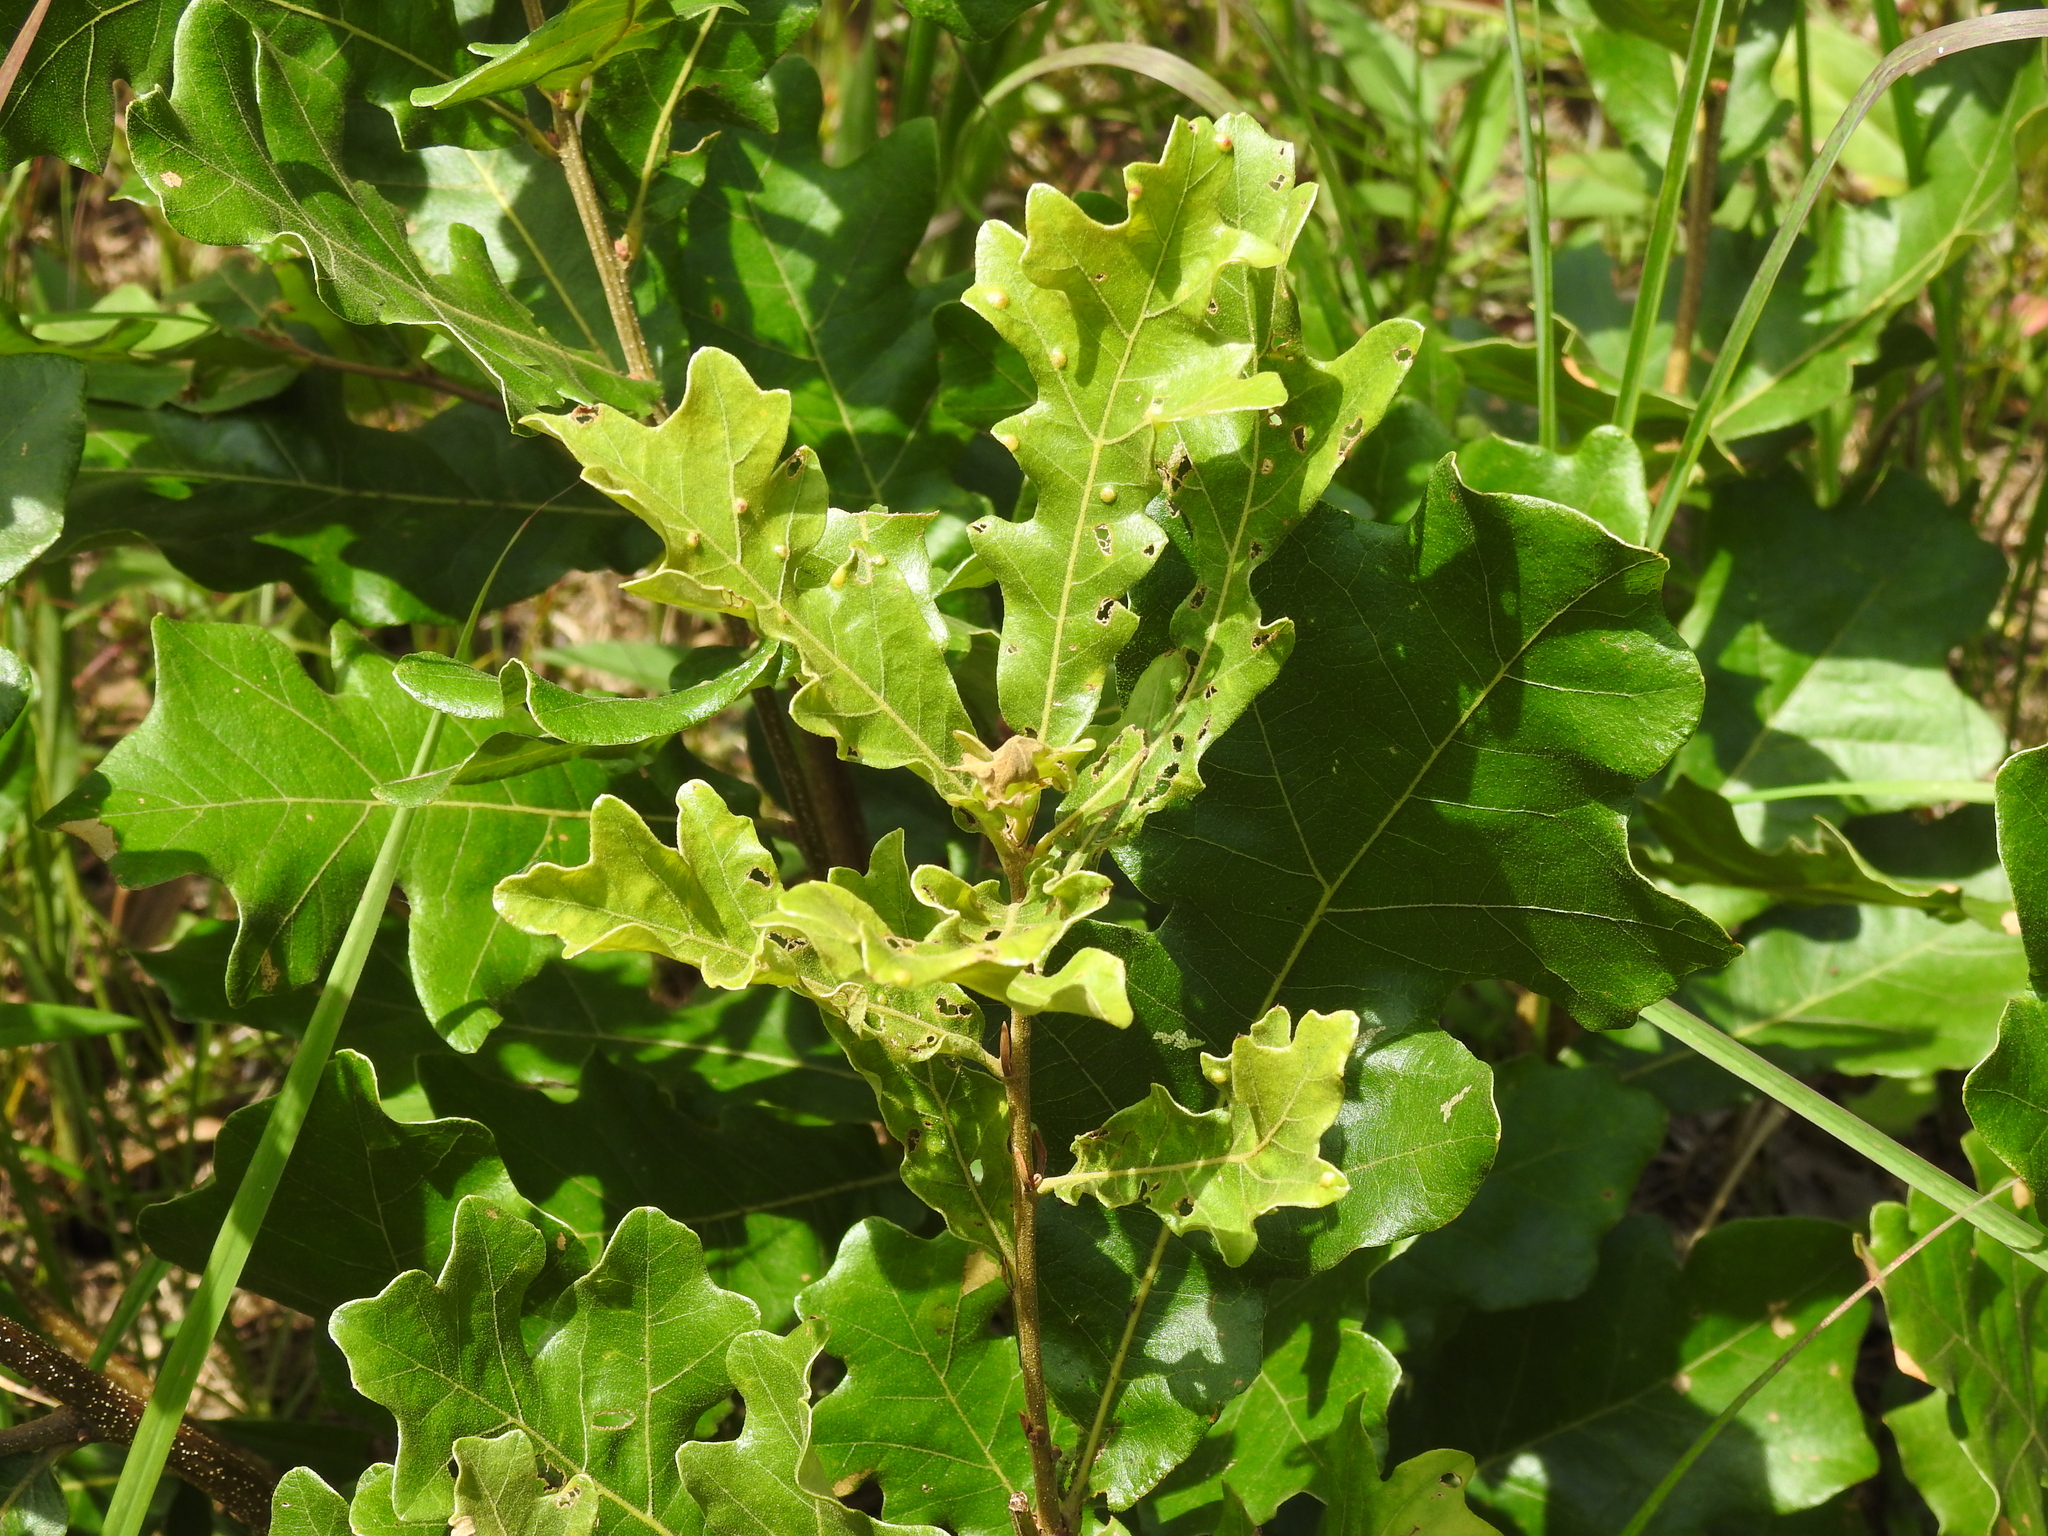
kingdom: Plantae
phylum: Tracheophyta
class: Magnoliopsida
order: Fagales
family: Fagaceae
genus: Quercus
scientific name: Quercus stellata
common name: Post oak
